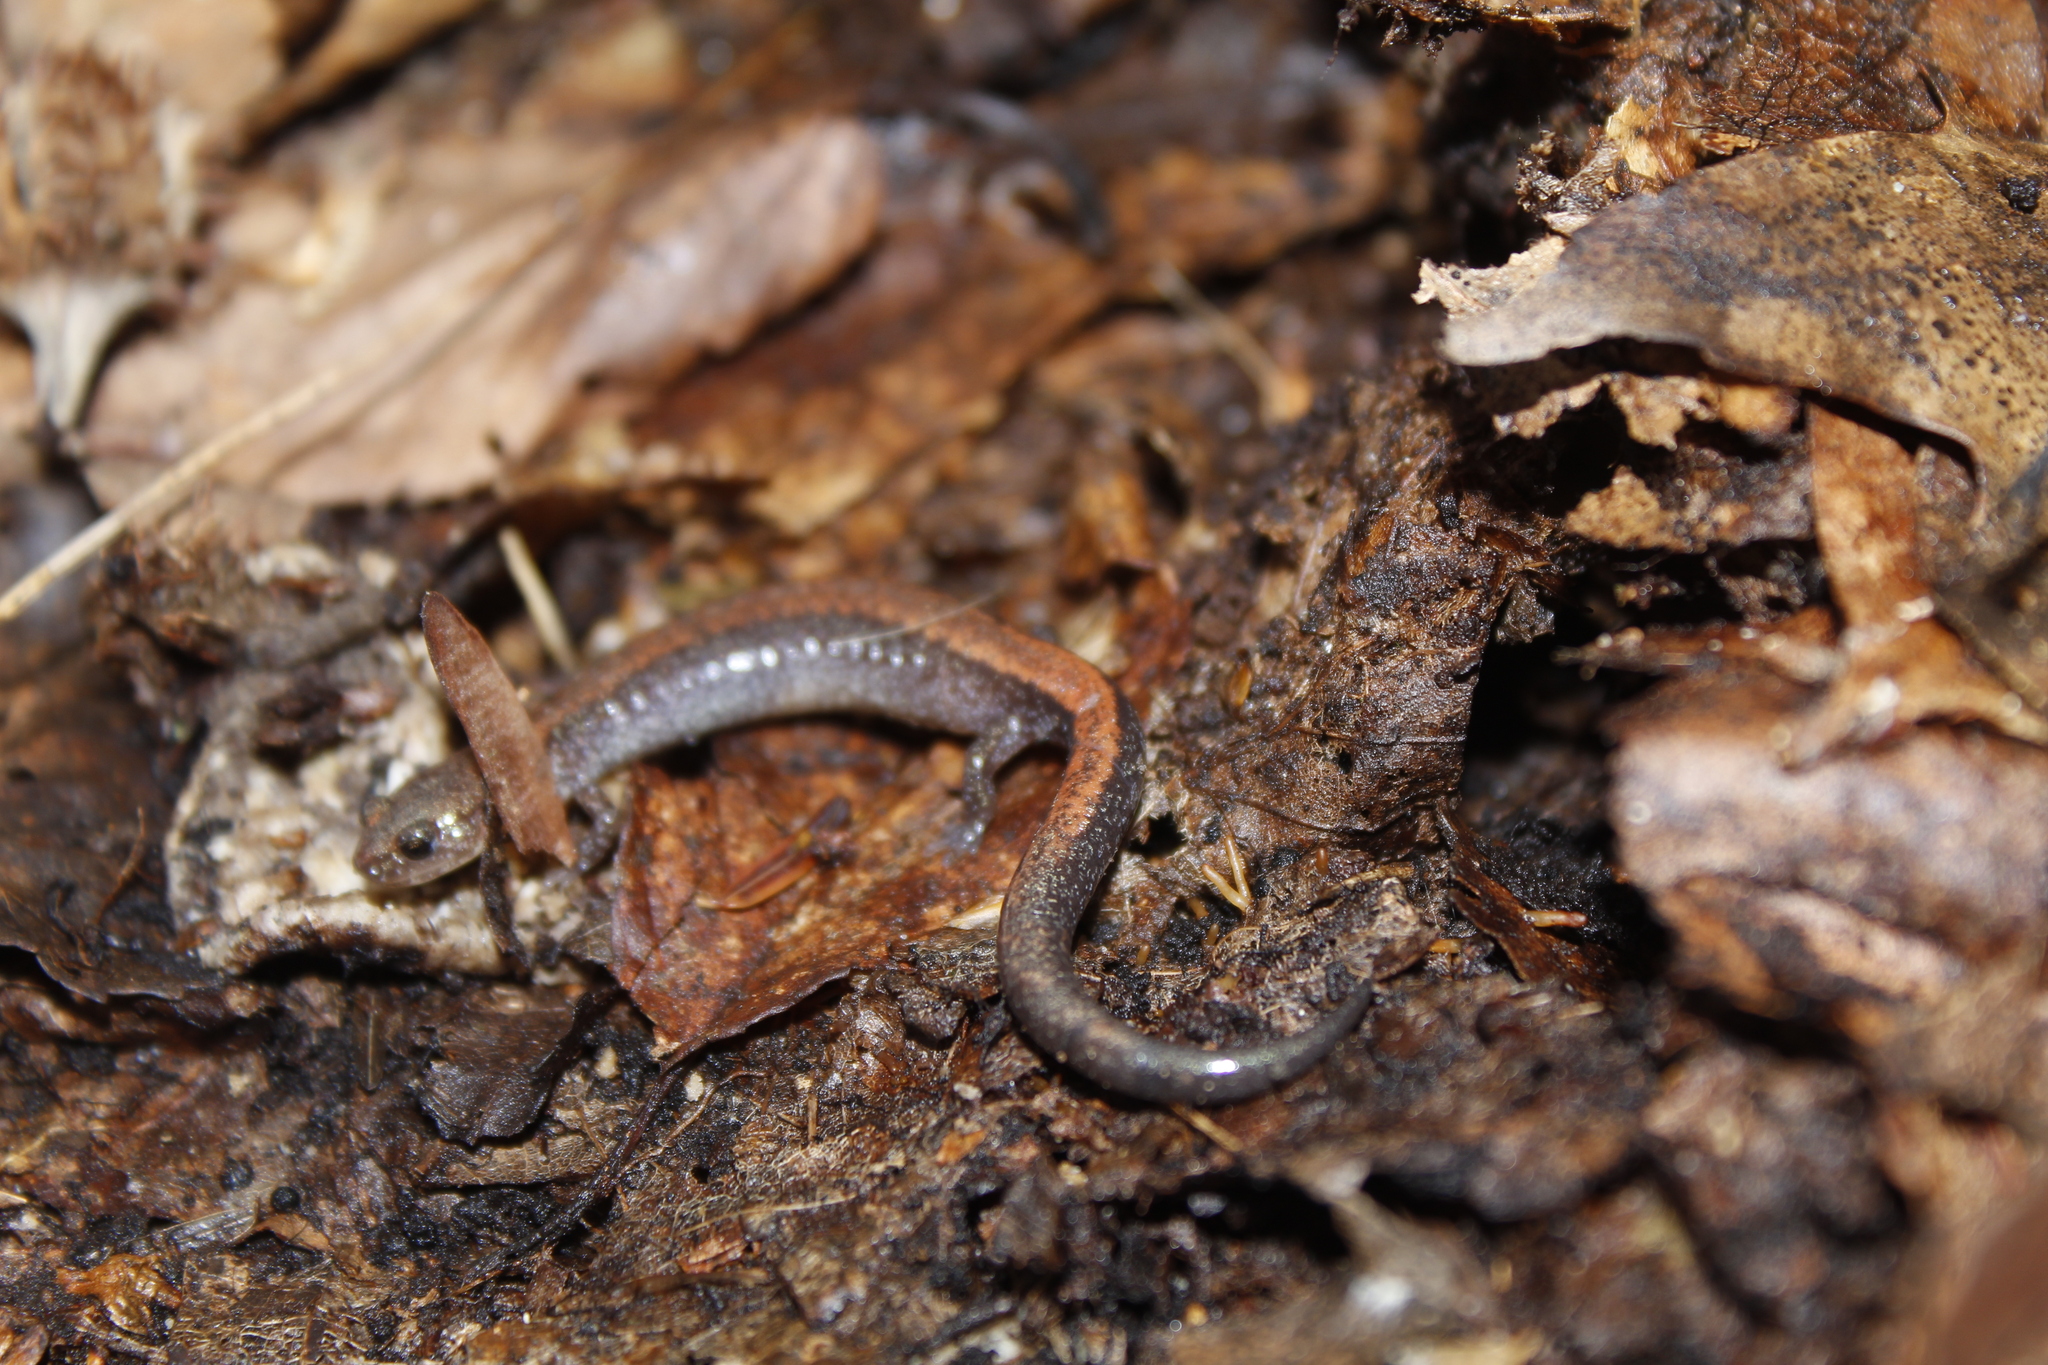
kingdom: Animalia
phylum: Chordata
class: Amphibia
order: Caudata
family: Plethodontidae
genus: Plethodon
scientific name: Plethodon cinereus
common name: Redback salamander
